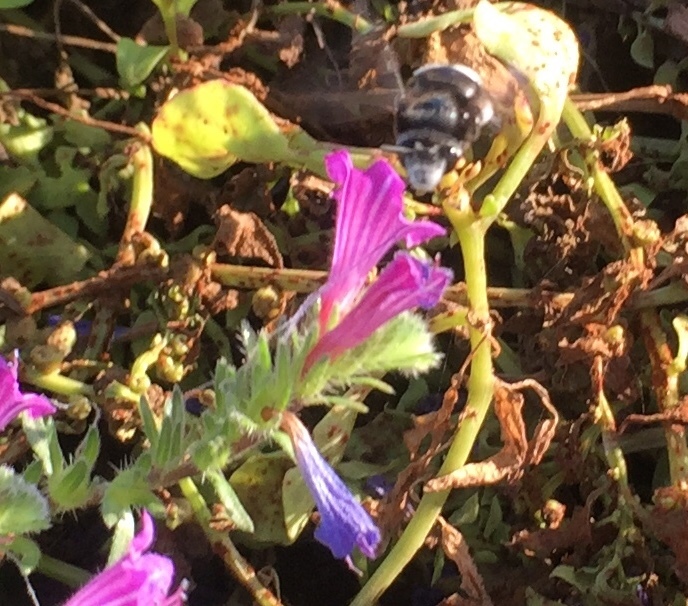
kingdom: Animalia
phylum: Arthropoda
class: Insecta
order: Hymenoptera
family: Apidae
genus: Anthophora
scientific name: Anthophora alluaudi
